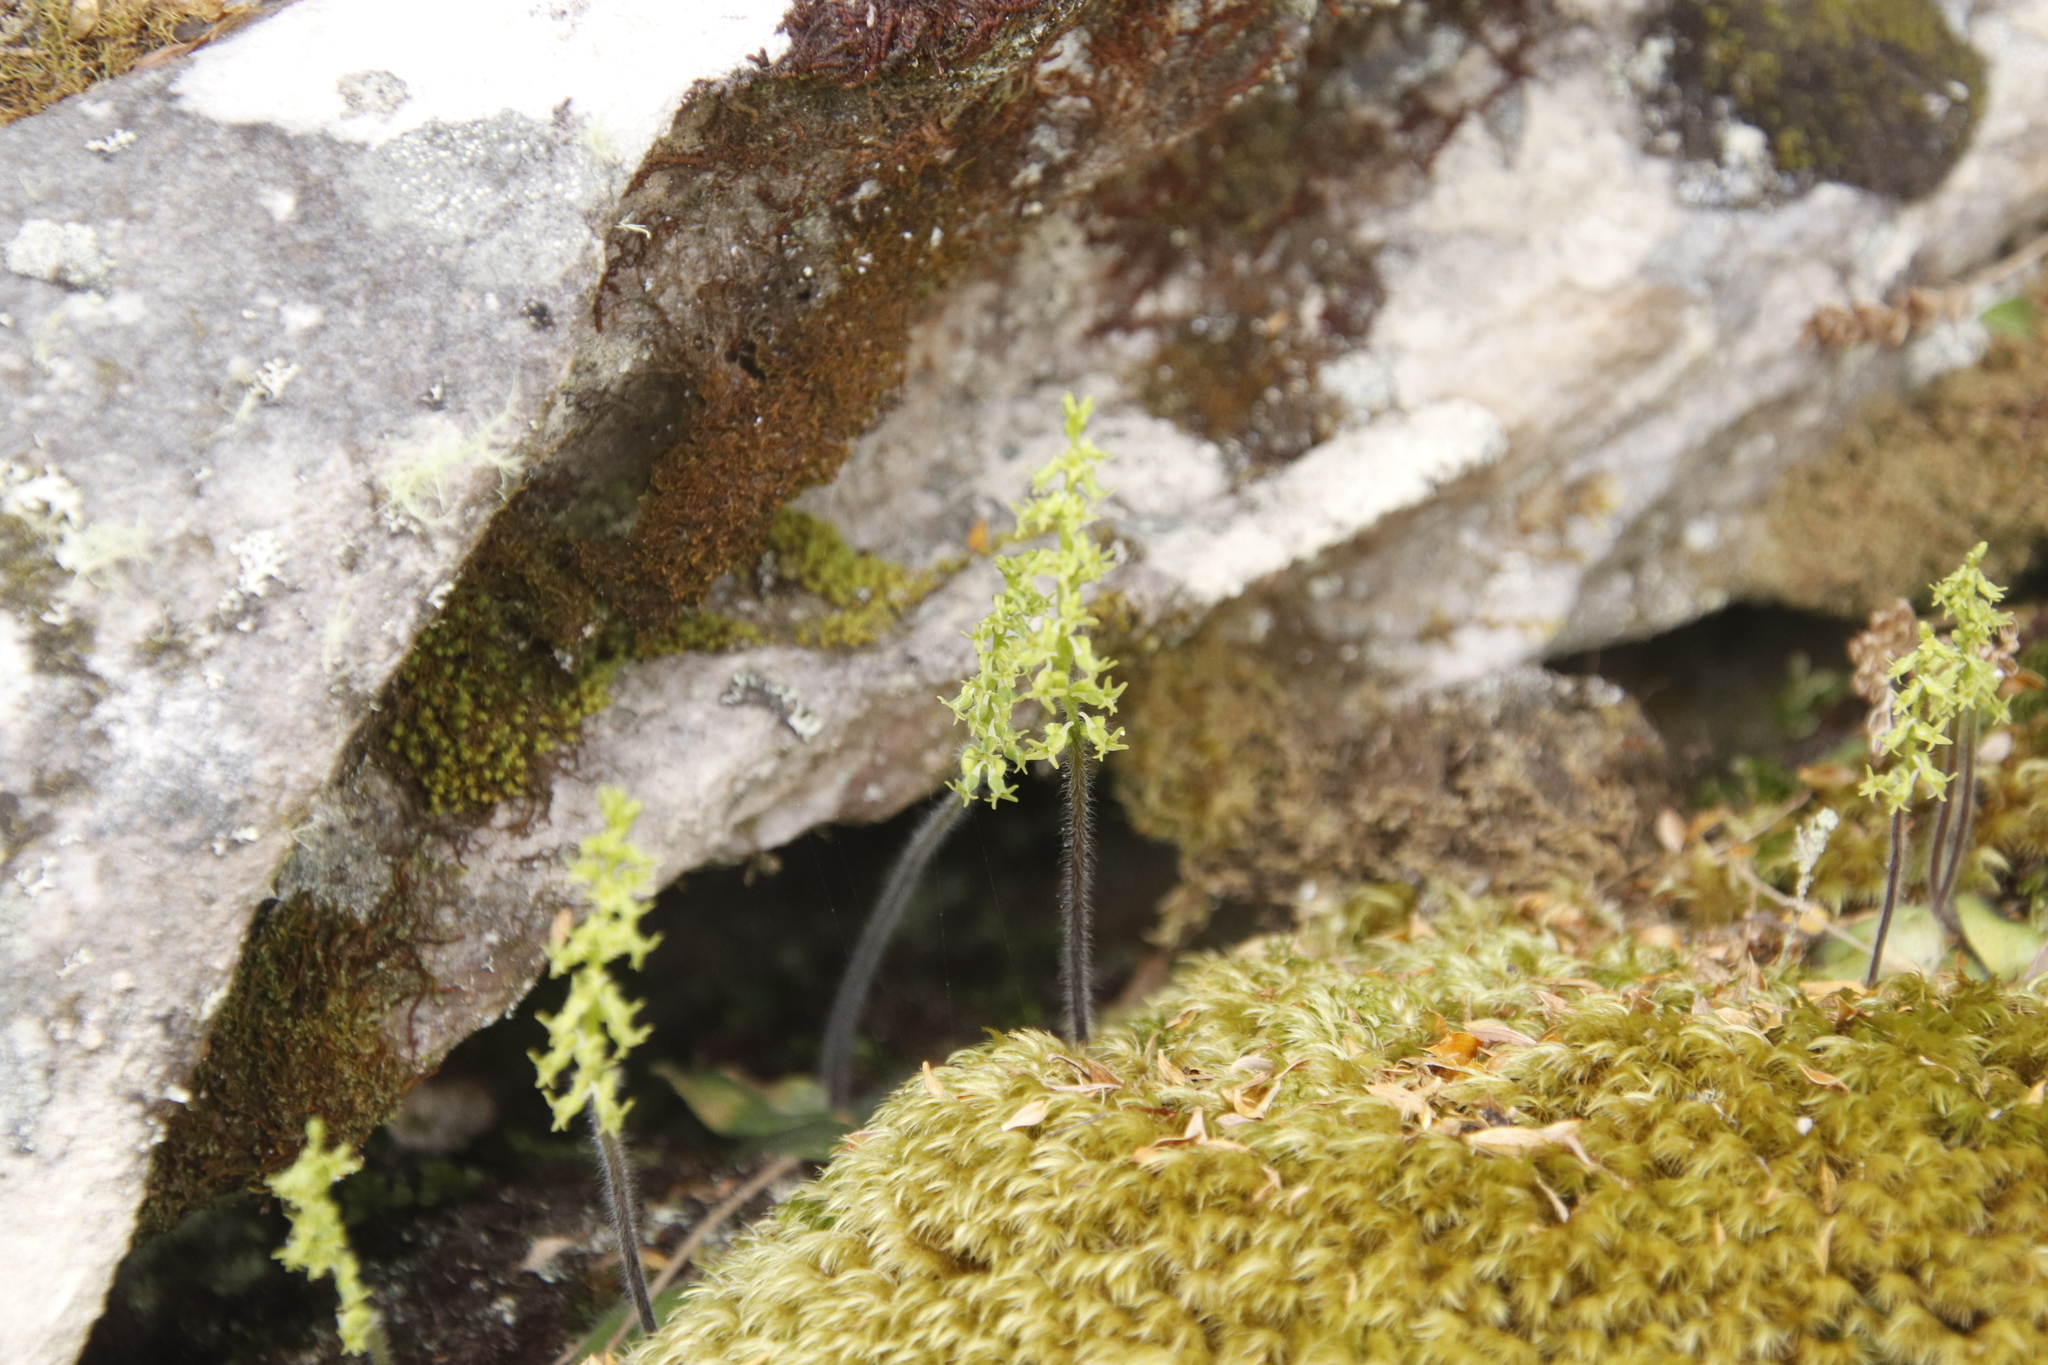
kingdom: Plantae
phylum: Bryophyta
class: Bryopsida
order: Dicranales
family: Dicranaceae
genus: Dicranoloma
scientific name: Dicranoloma billardieri
